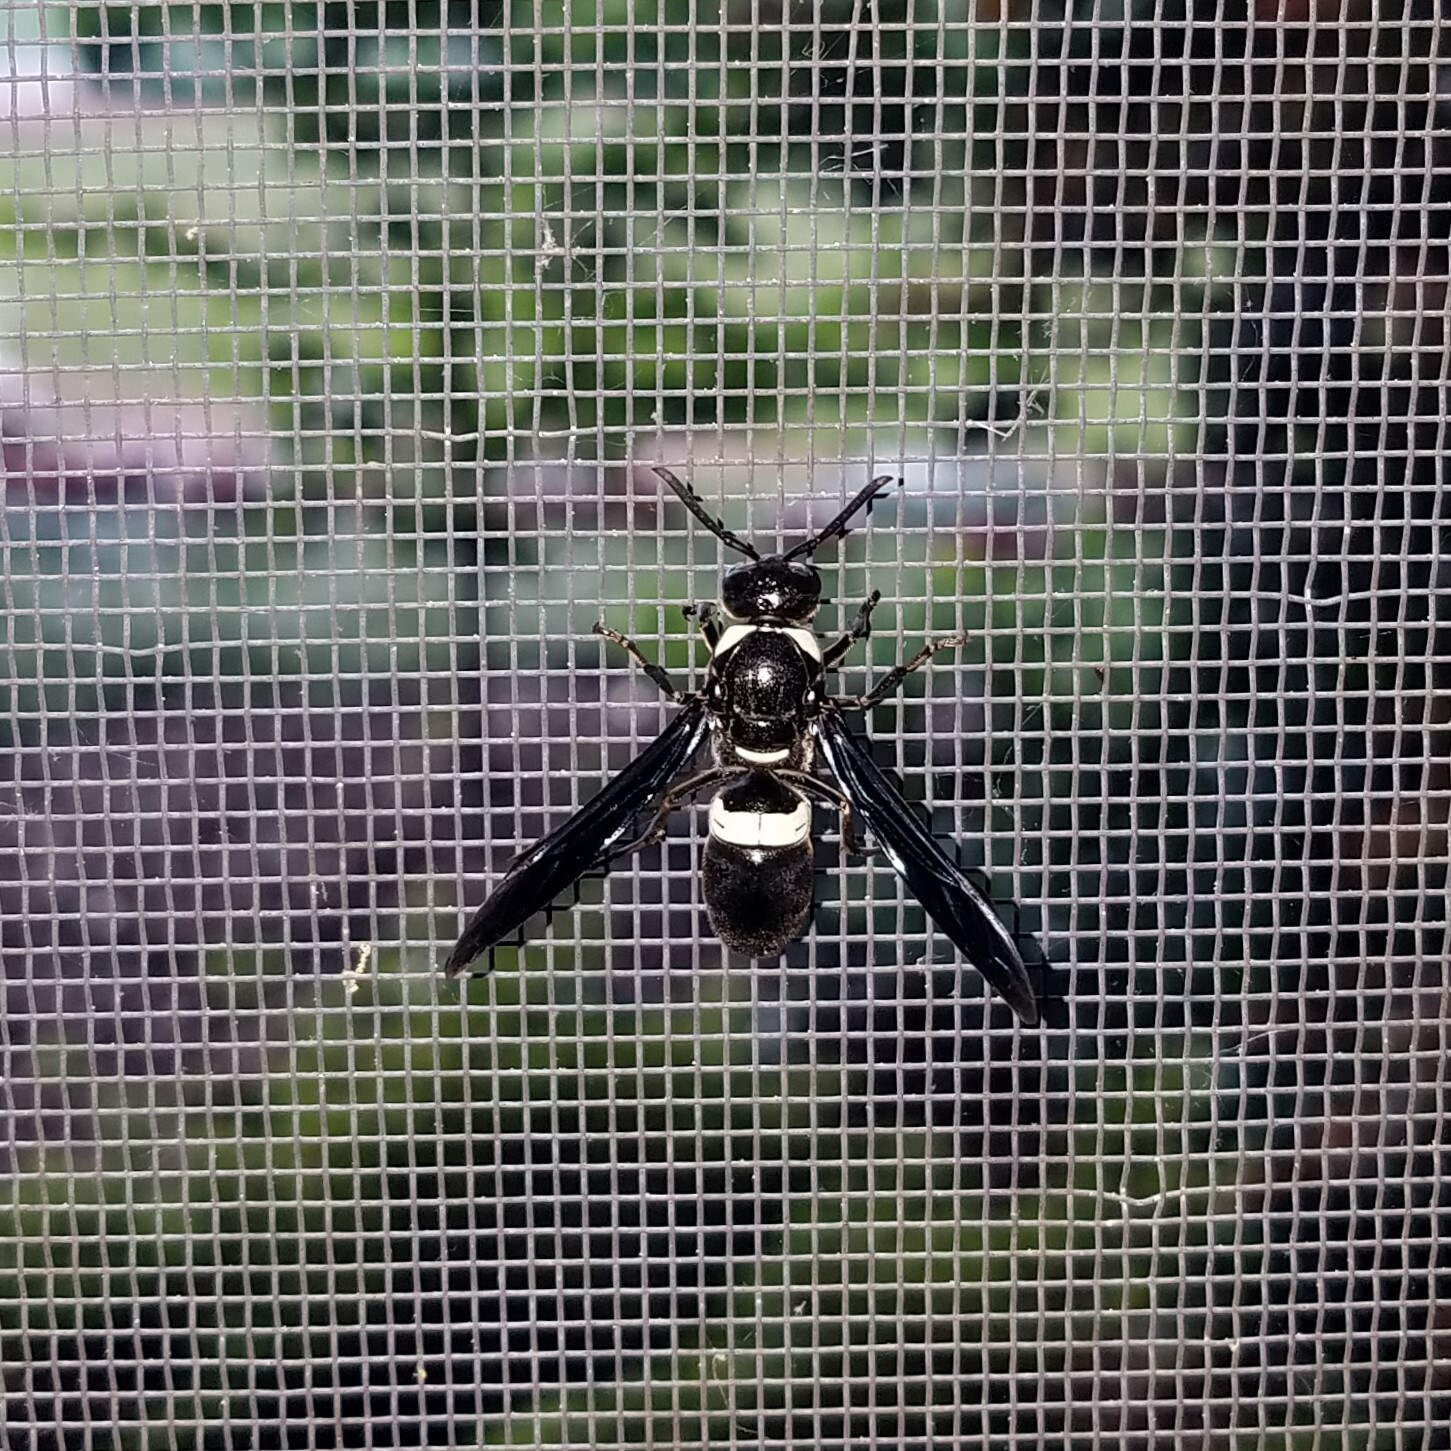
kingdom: Animalia
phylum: Arthropoda
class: Insecta
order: Hymenoptera
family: Eumenidae
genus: Monobia
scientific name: Monobia quadridens
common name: Four-toothed mason wasp
